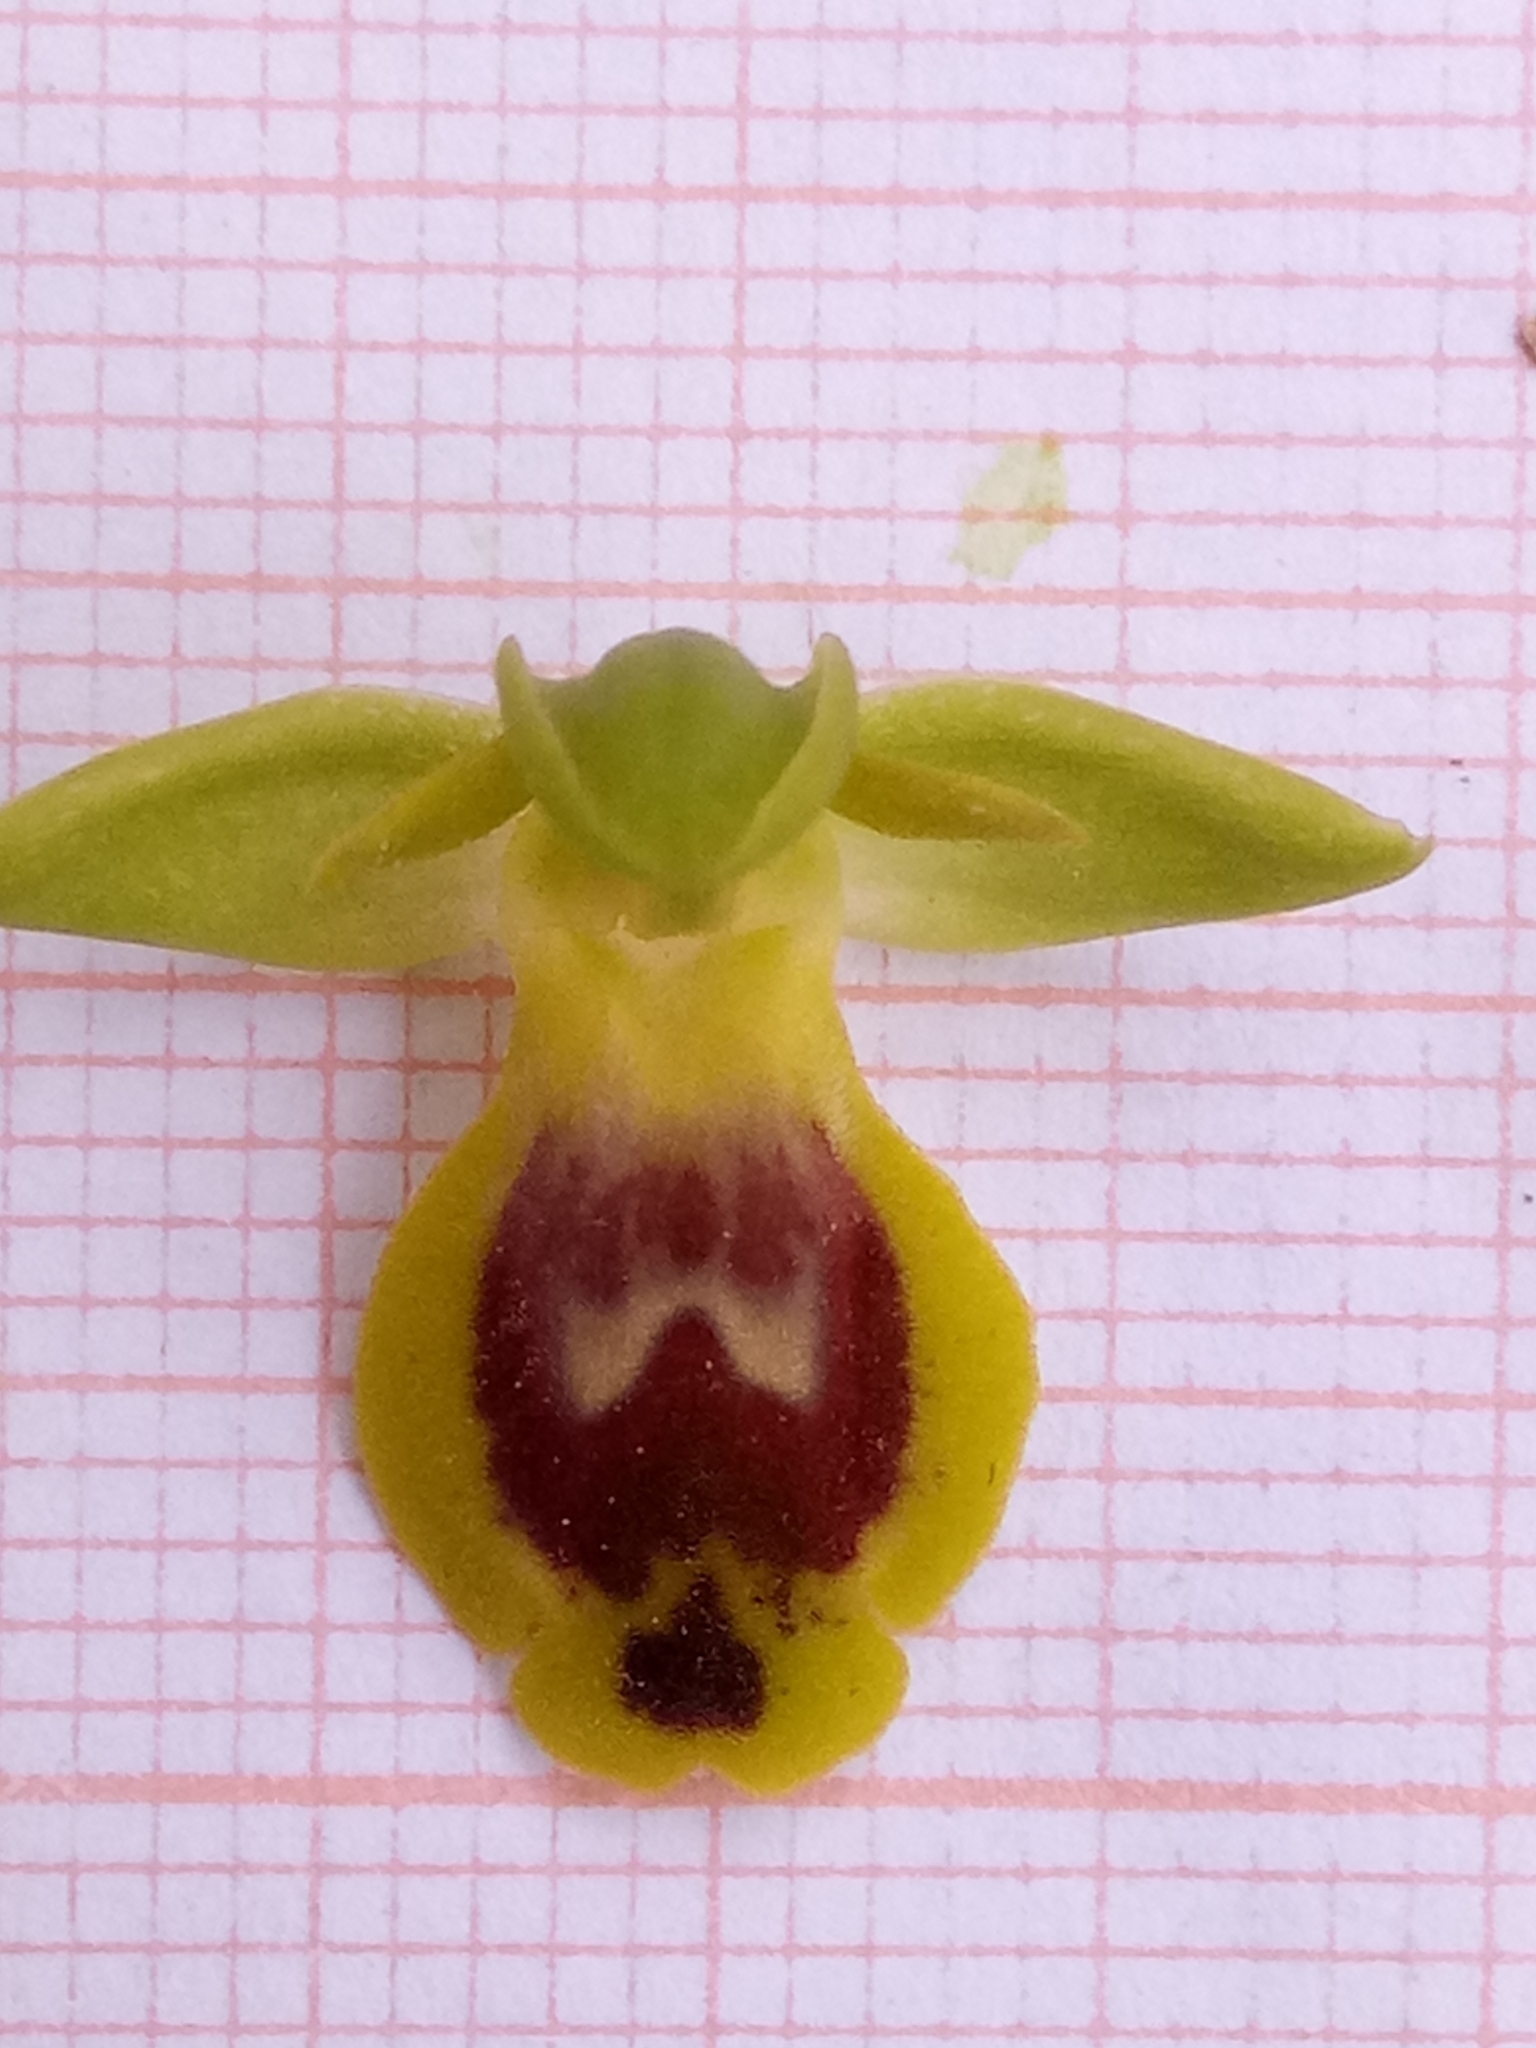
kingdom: Plantae
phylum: Tracheophyta
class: Liliopsida
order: Asparagales
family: Orchidaceae
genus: Ophrys
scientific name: Ophrys battandieri
